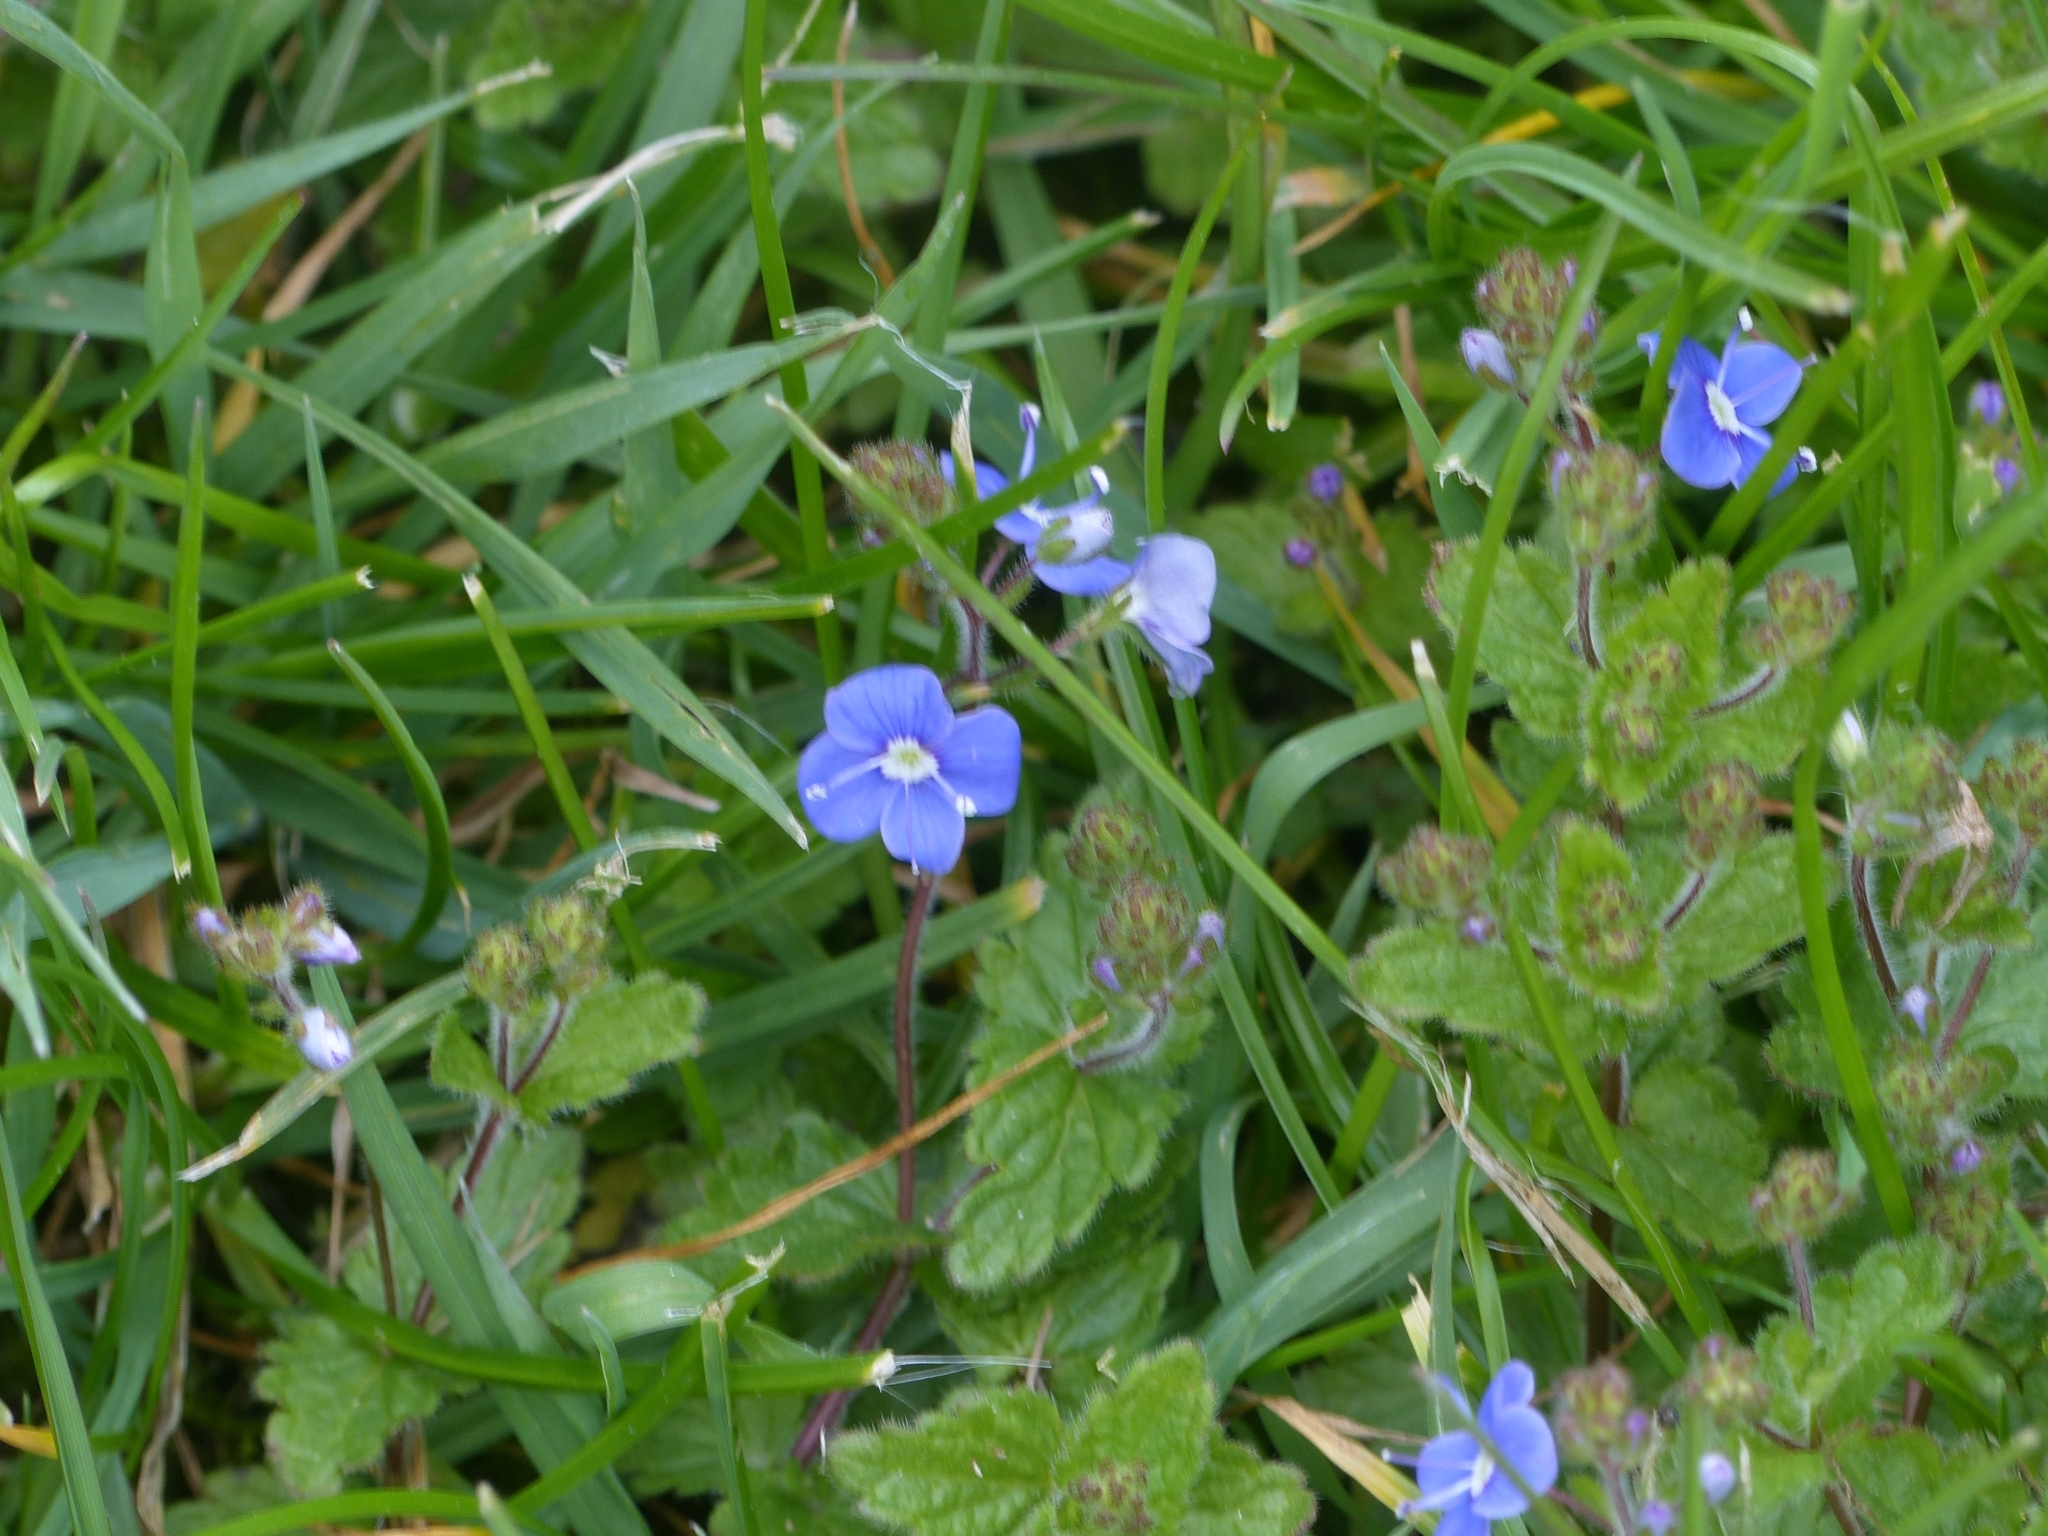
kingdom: Plantae
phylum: Tracheophyta
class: Magnoliopsida
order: Lamiales
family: Plantaginaceae
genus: Veronica
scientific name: Veronica chamaedrys
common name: Germander speedwell
